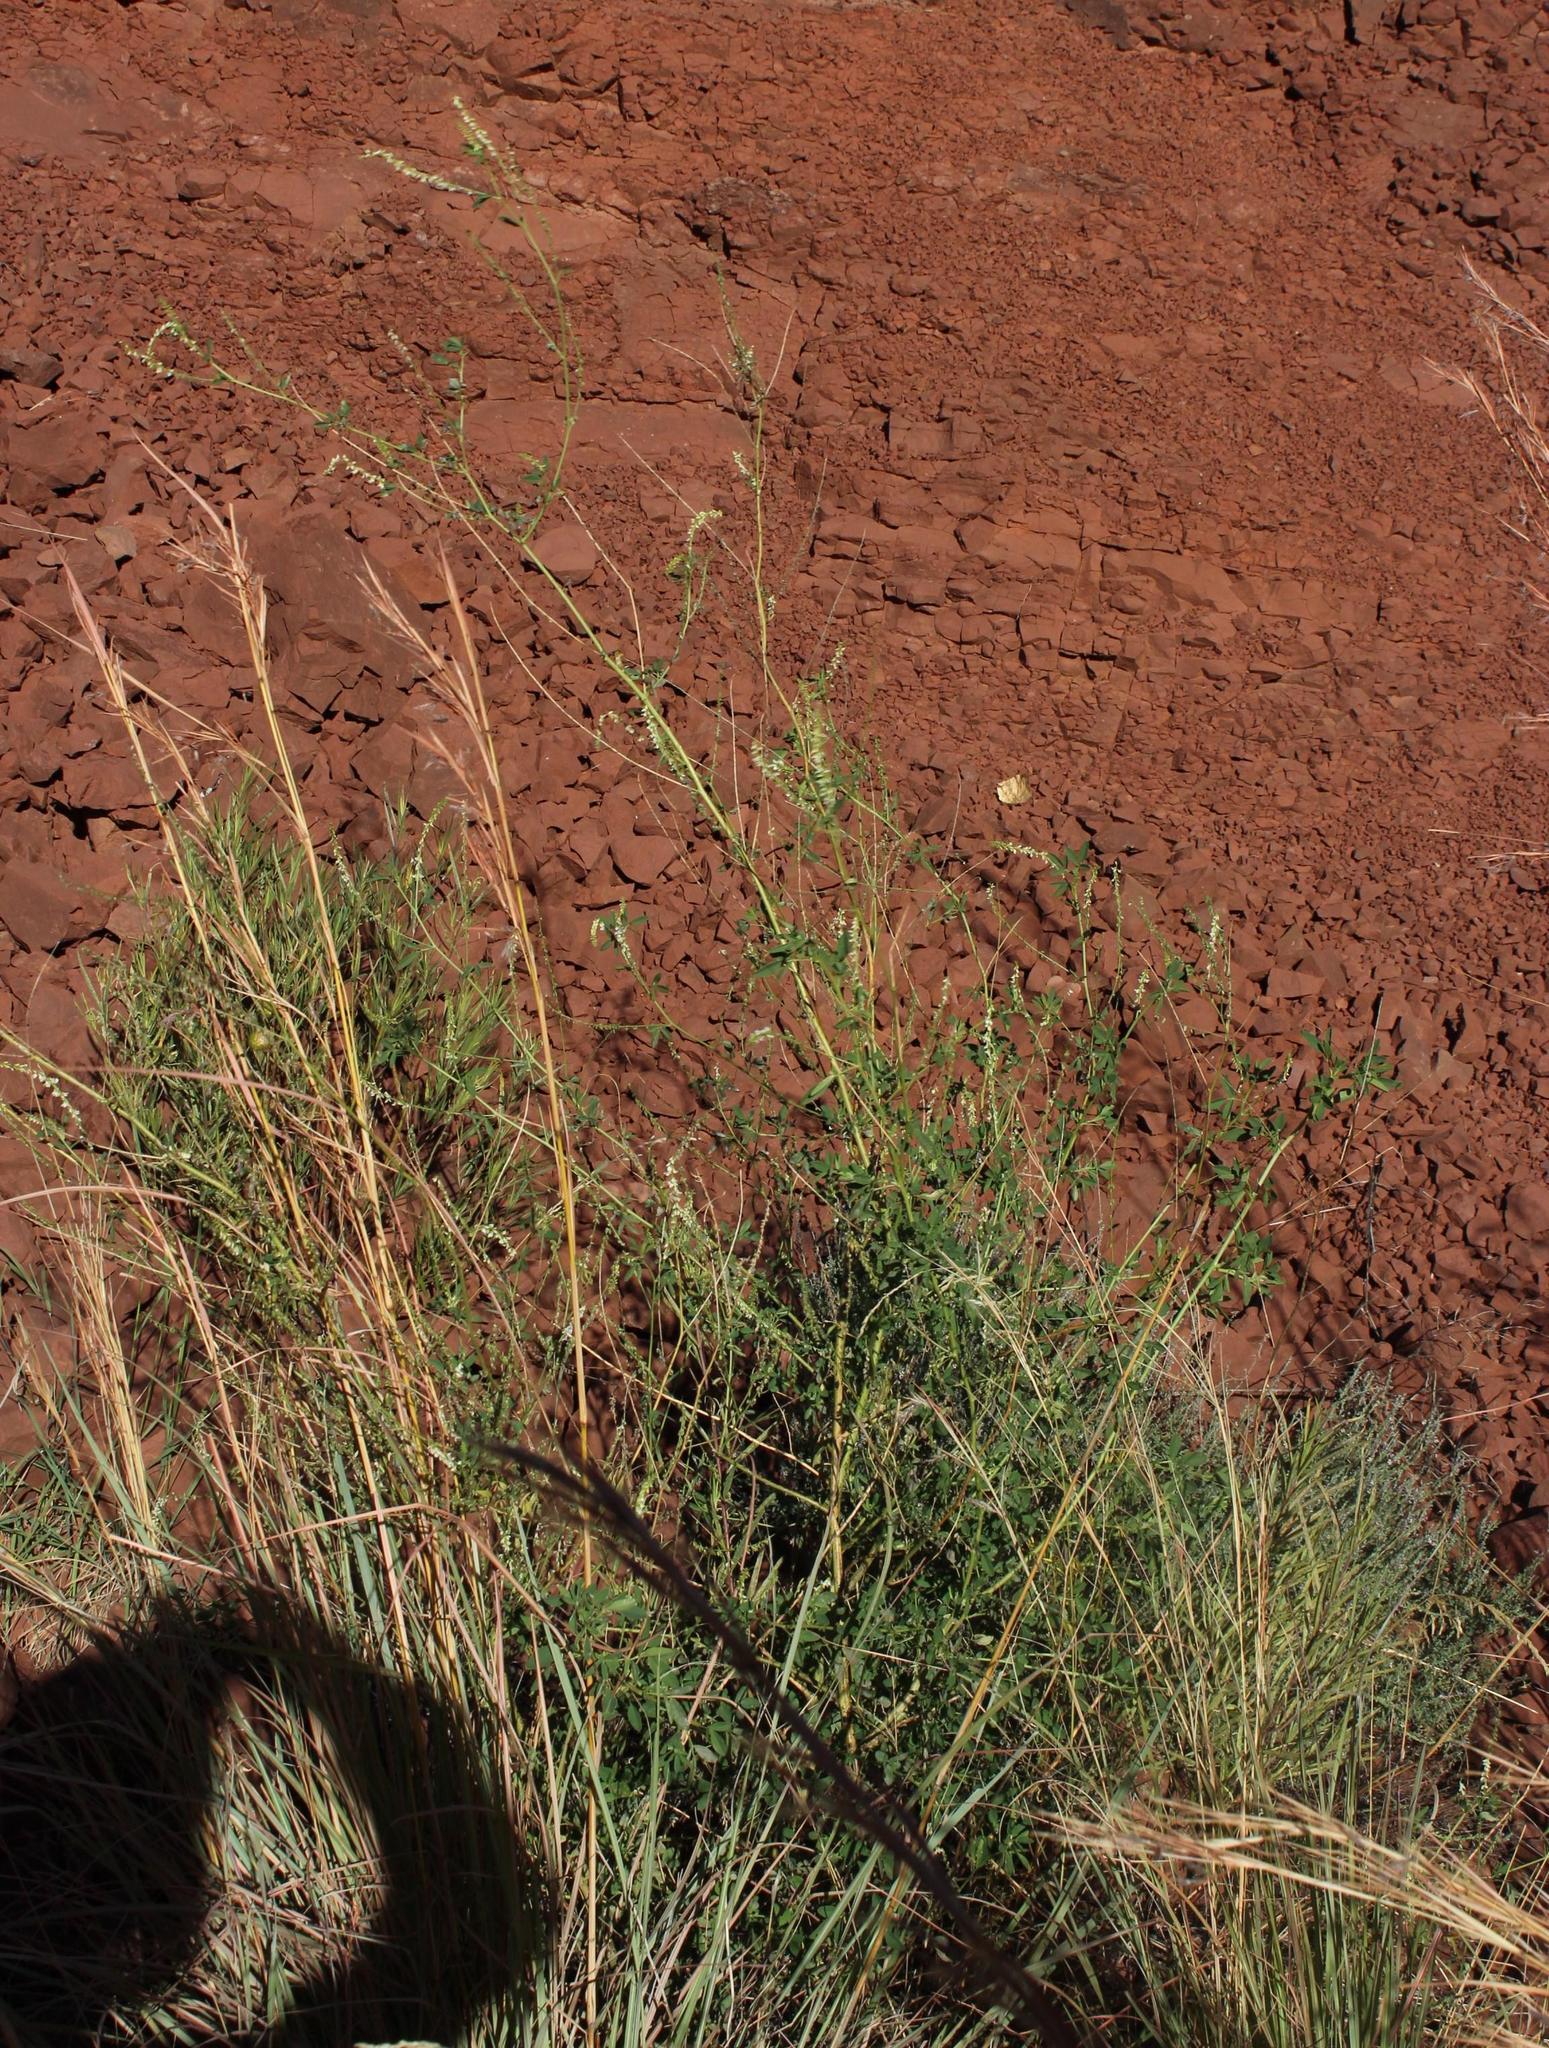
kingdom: Plantae
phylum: Tracheophyta
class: Magnoliopsida
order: Fabales
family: Fabaceae
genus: Melilotus
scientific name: Melilotus albus
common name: White melilot
